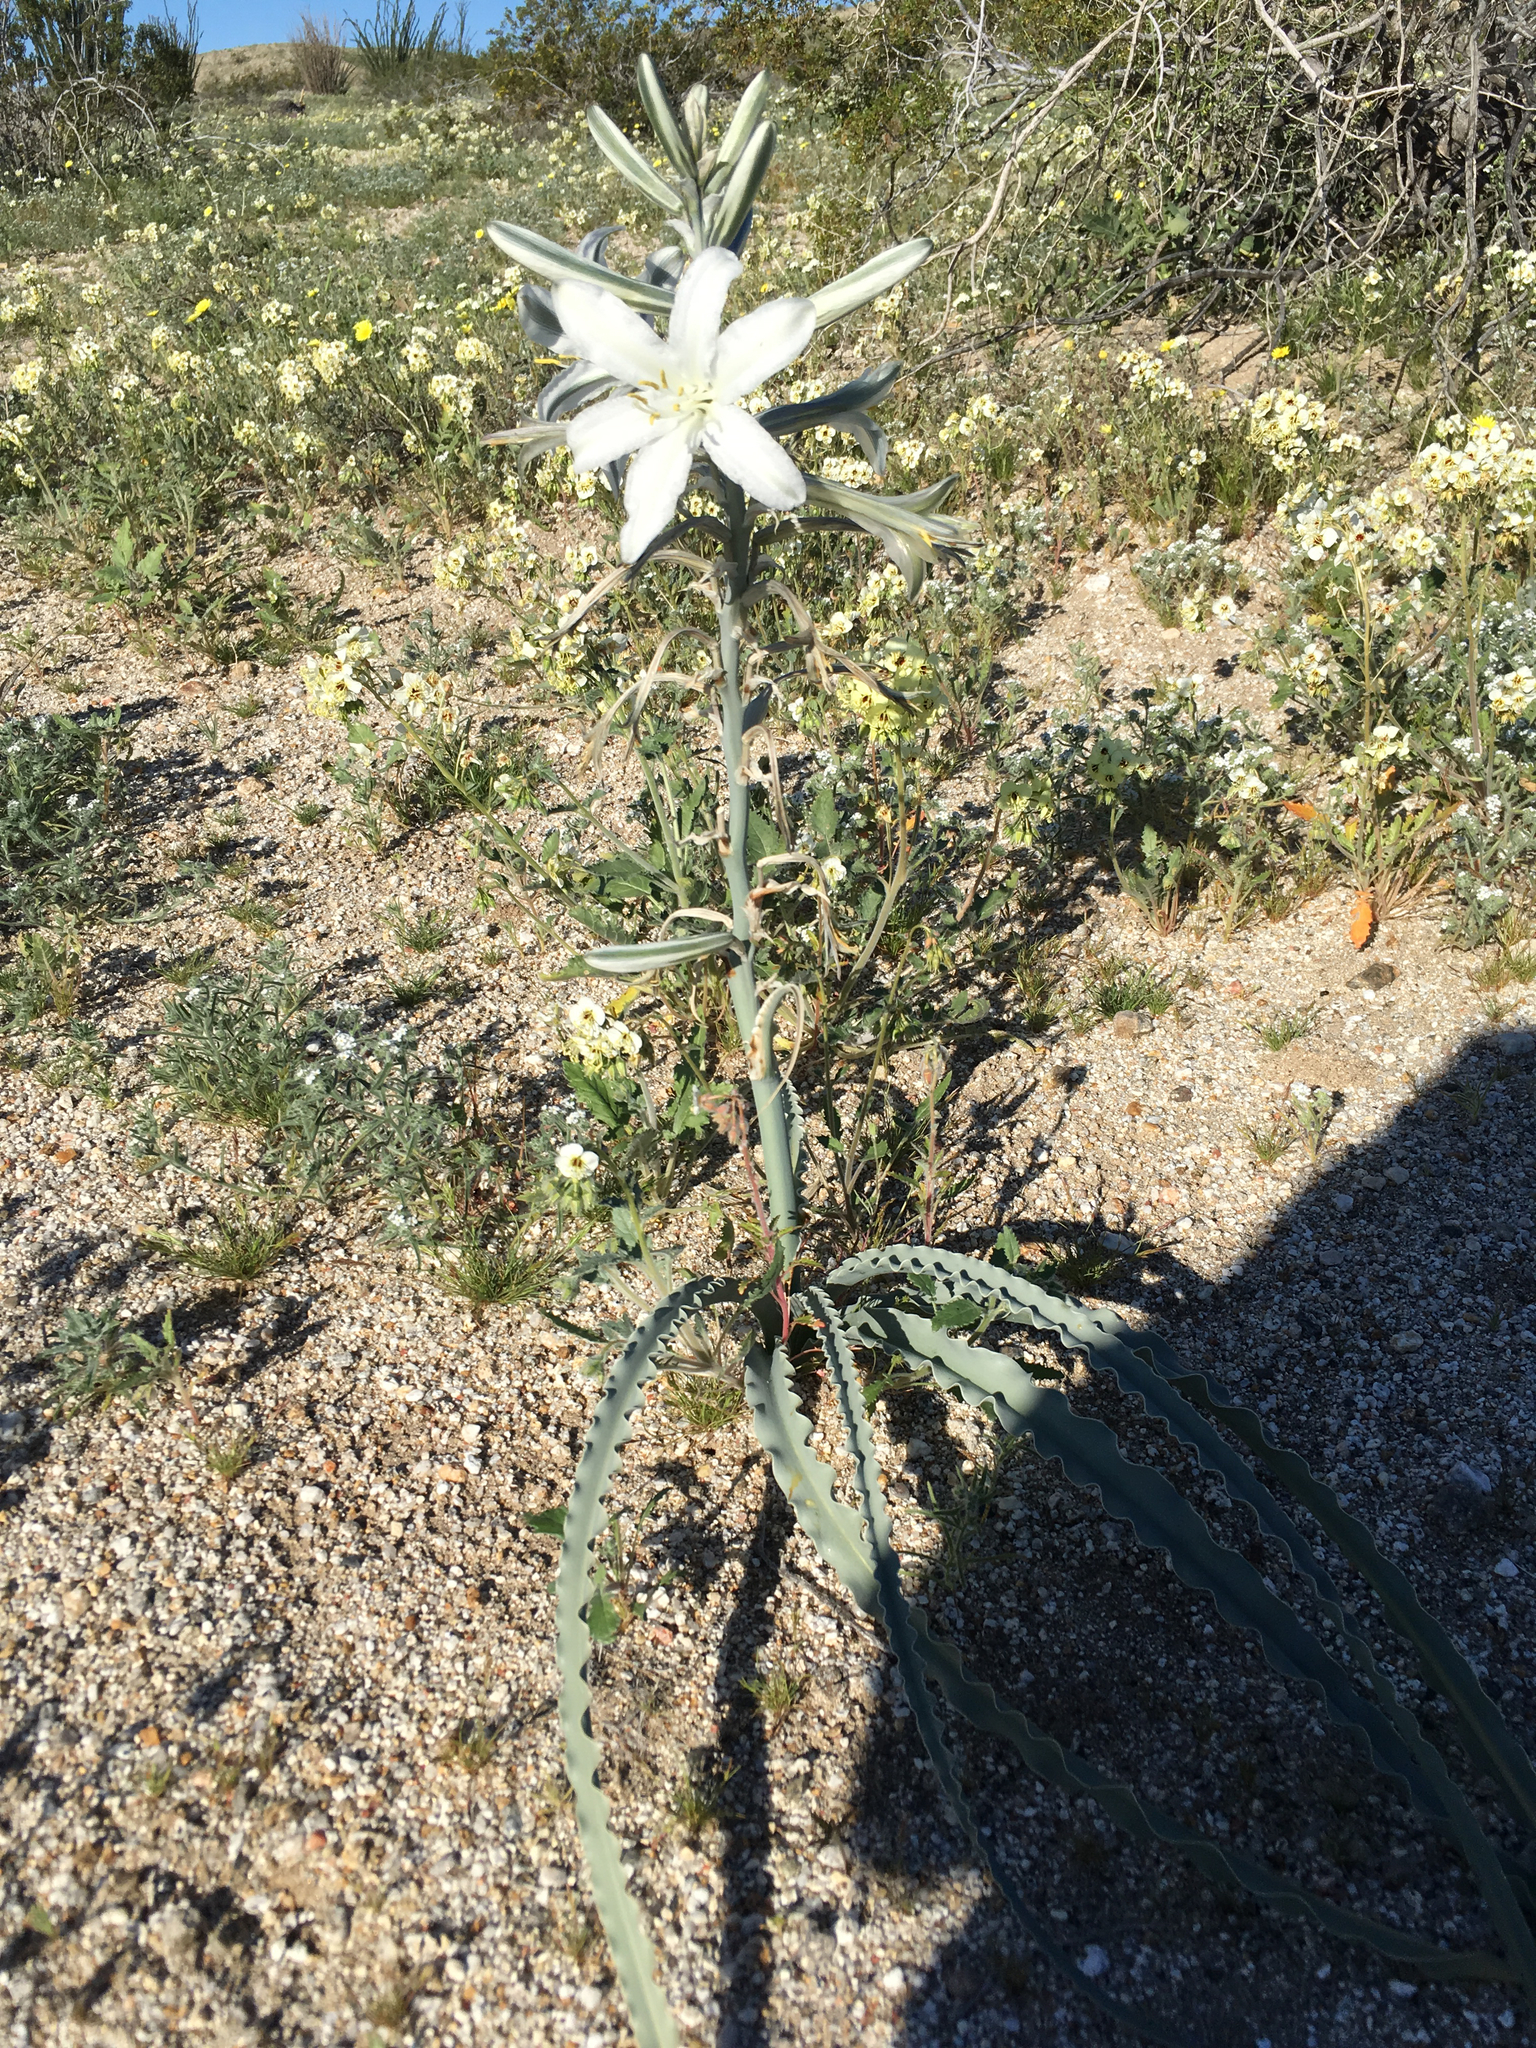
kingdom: Plantae
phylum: Tracheophyta
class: Liliopsida
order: Asparagales
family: Asparagaceae
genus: Hesperocallis
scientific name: Hesperocallis undulata
